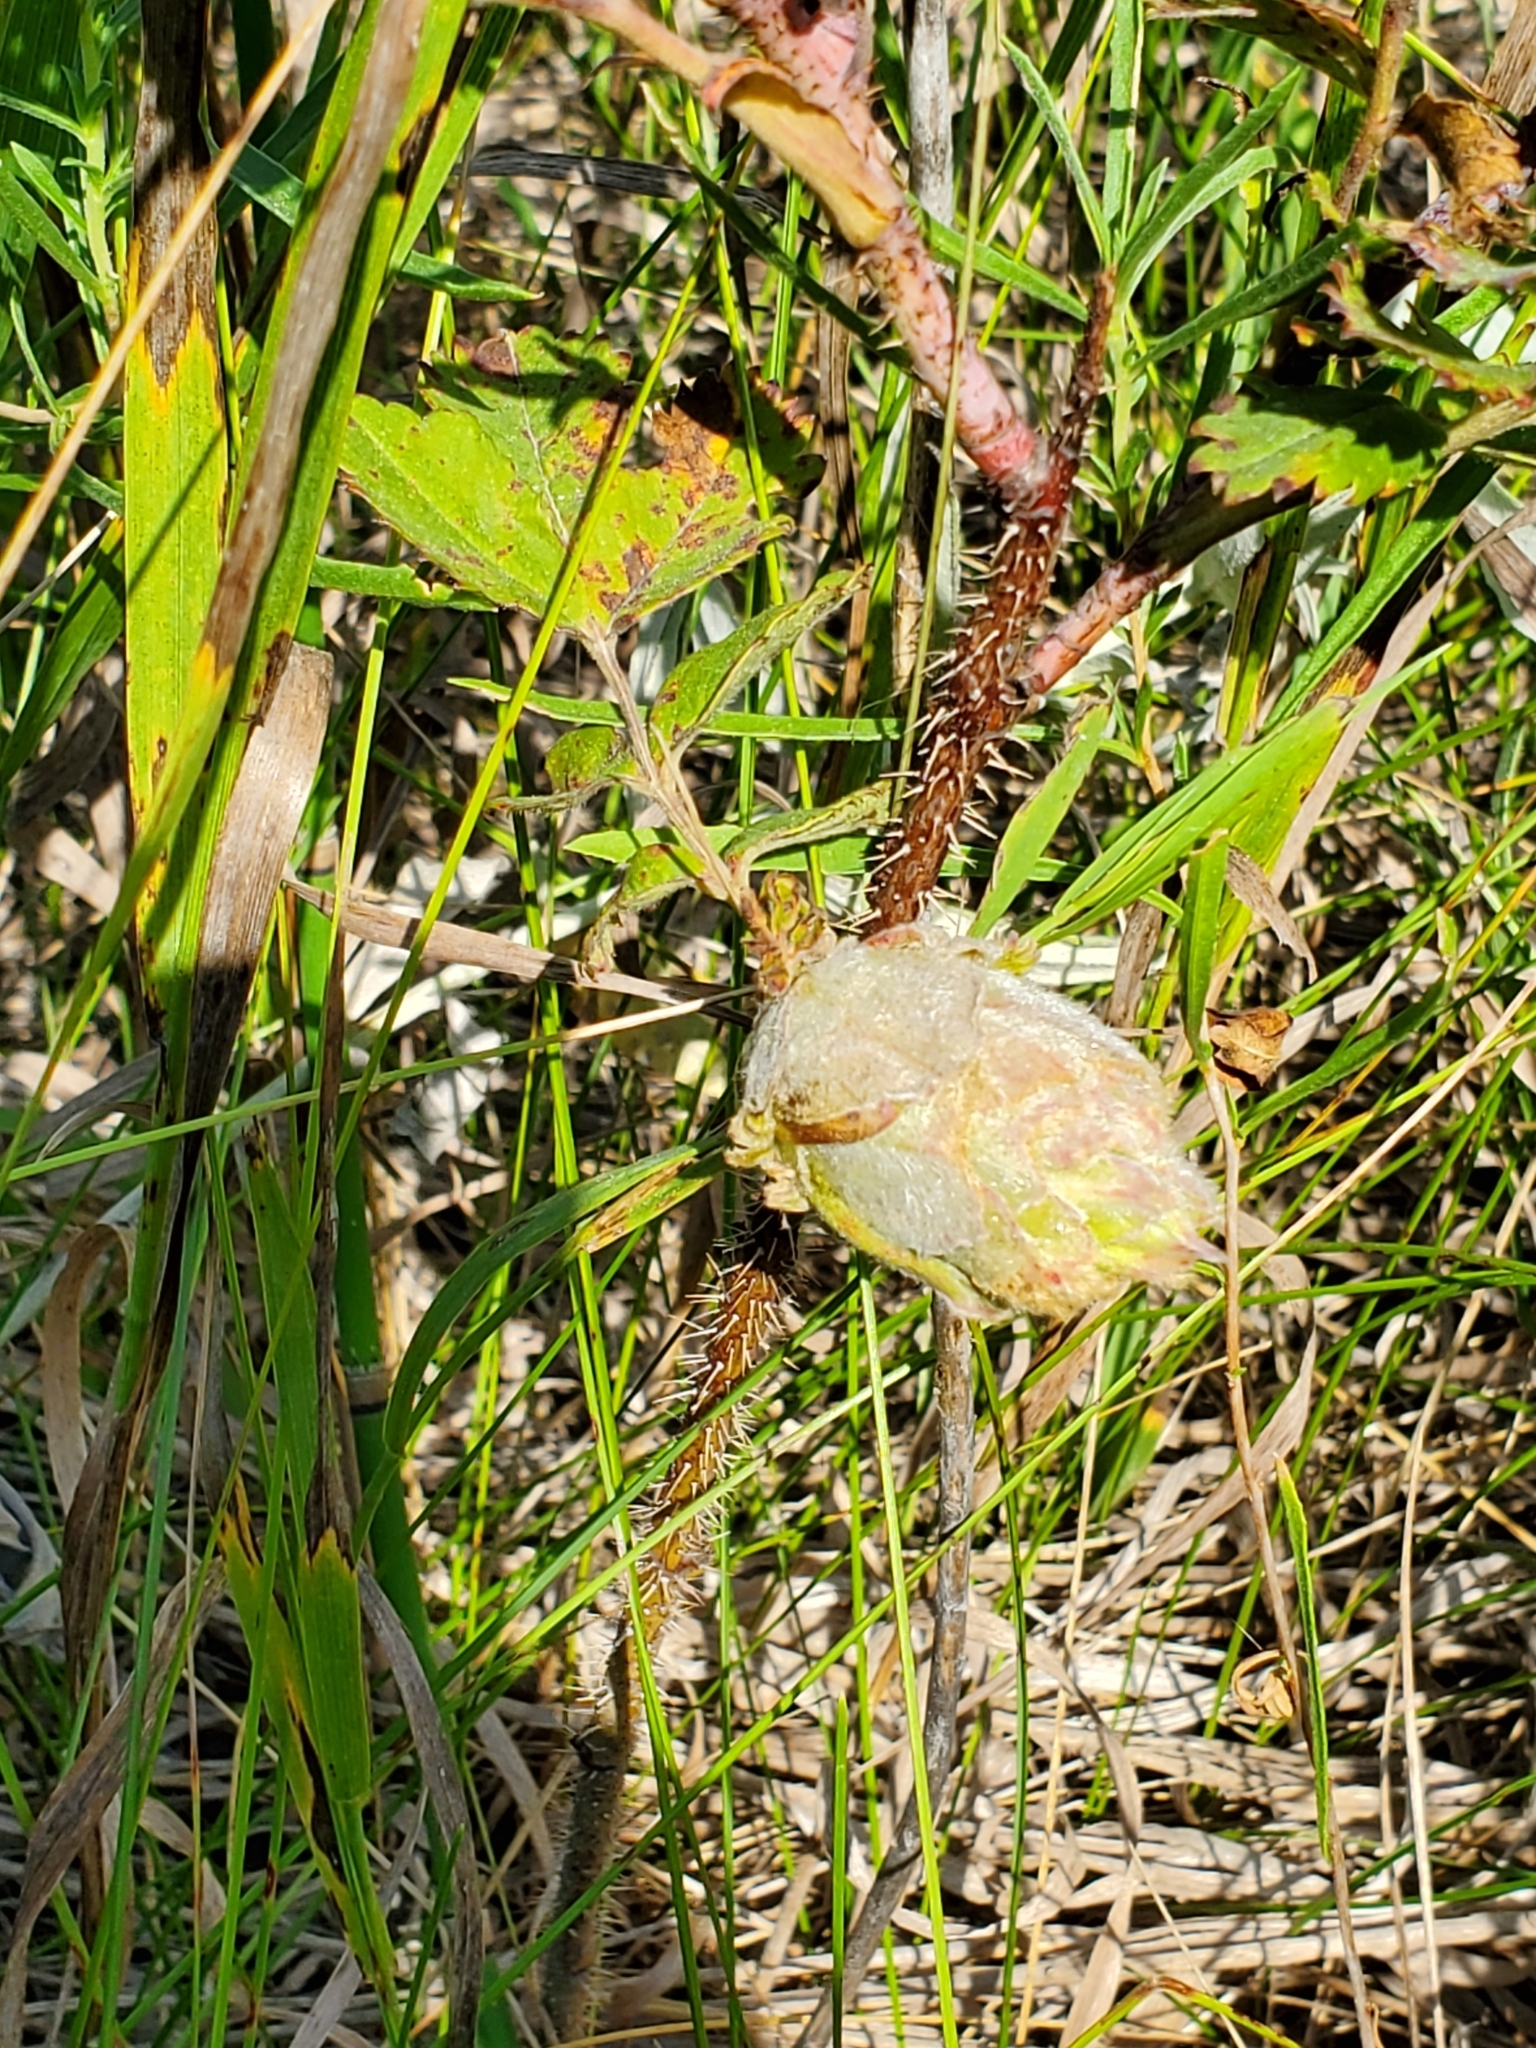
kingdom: Animalia
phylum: Arthropoda
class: Insecta
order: Diptera
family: Cecidomyiidae
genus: Rabdophaga
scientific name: Rabdophaga rosacea
